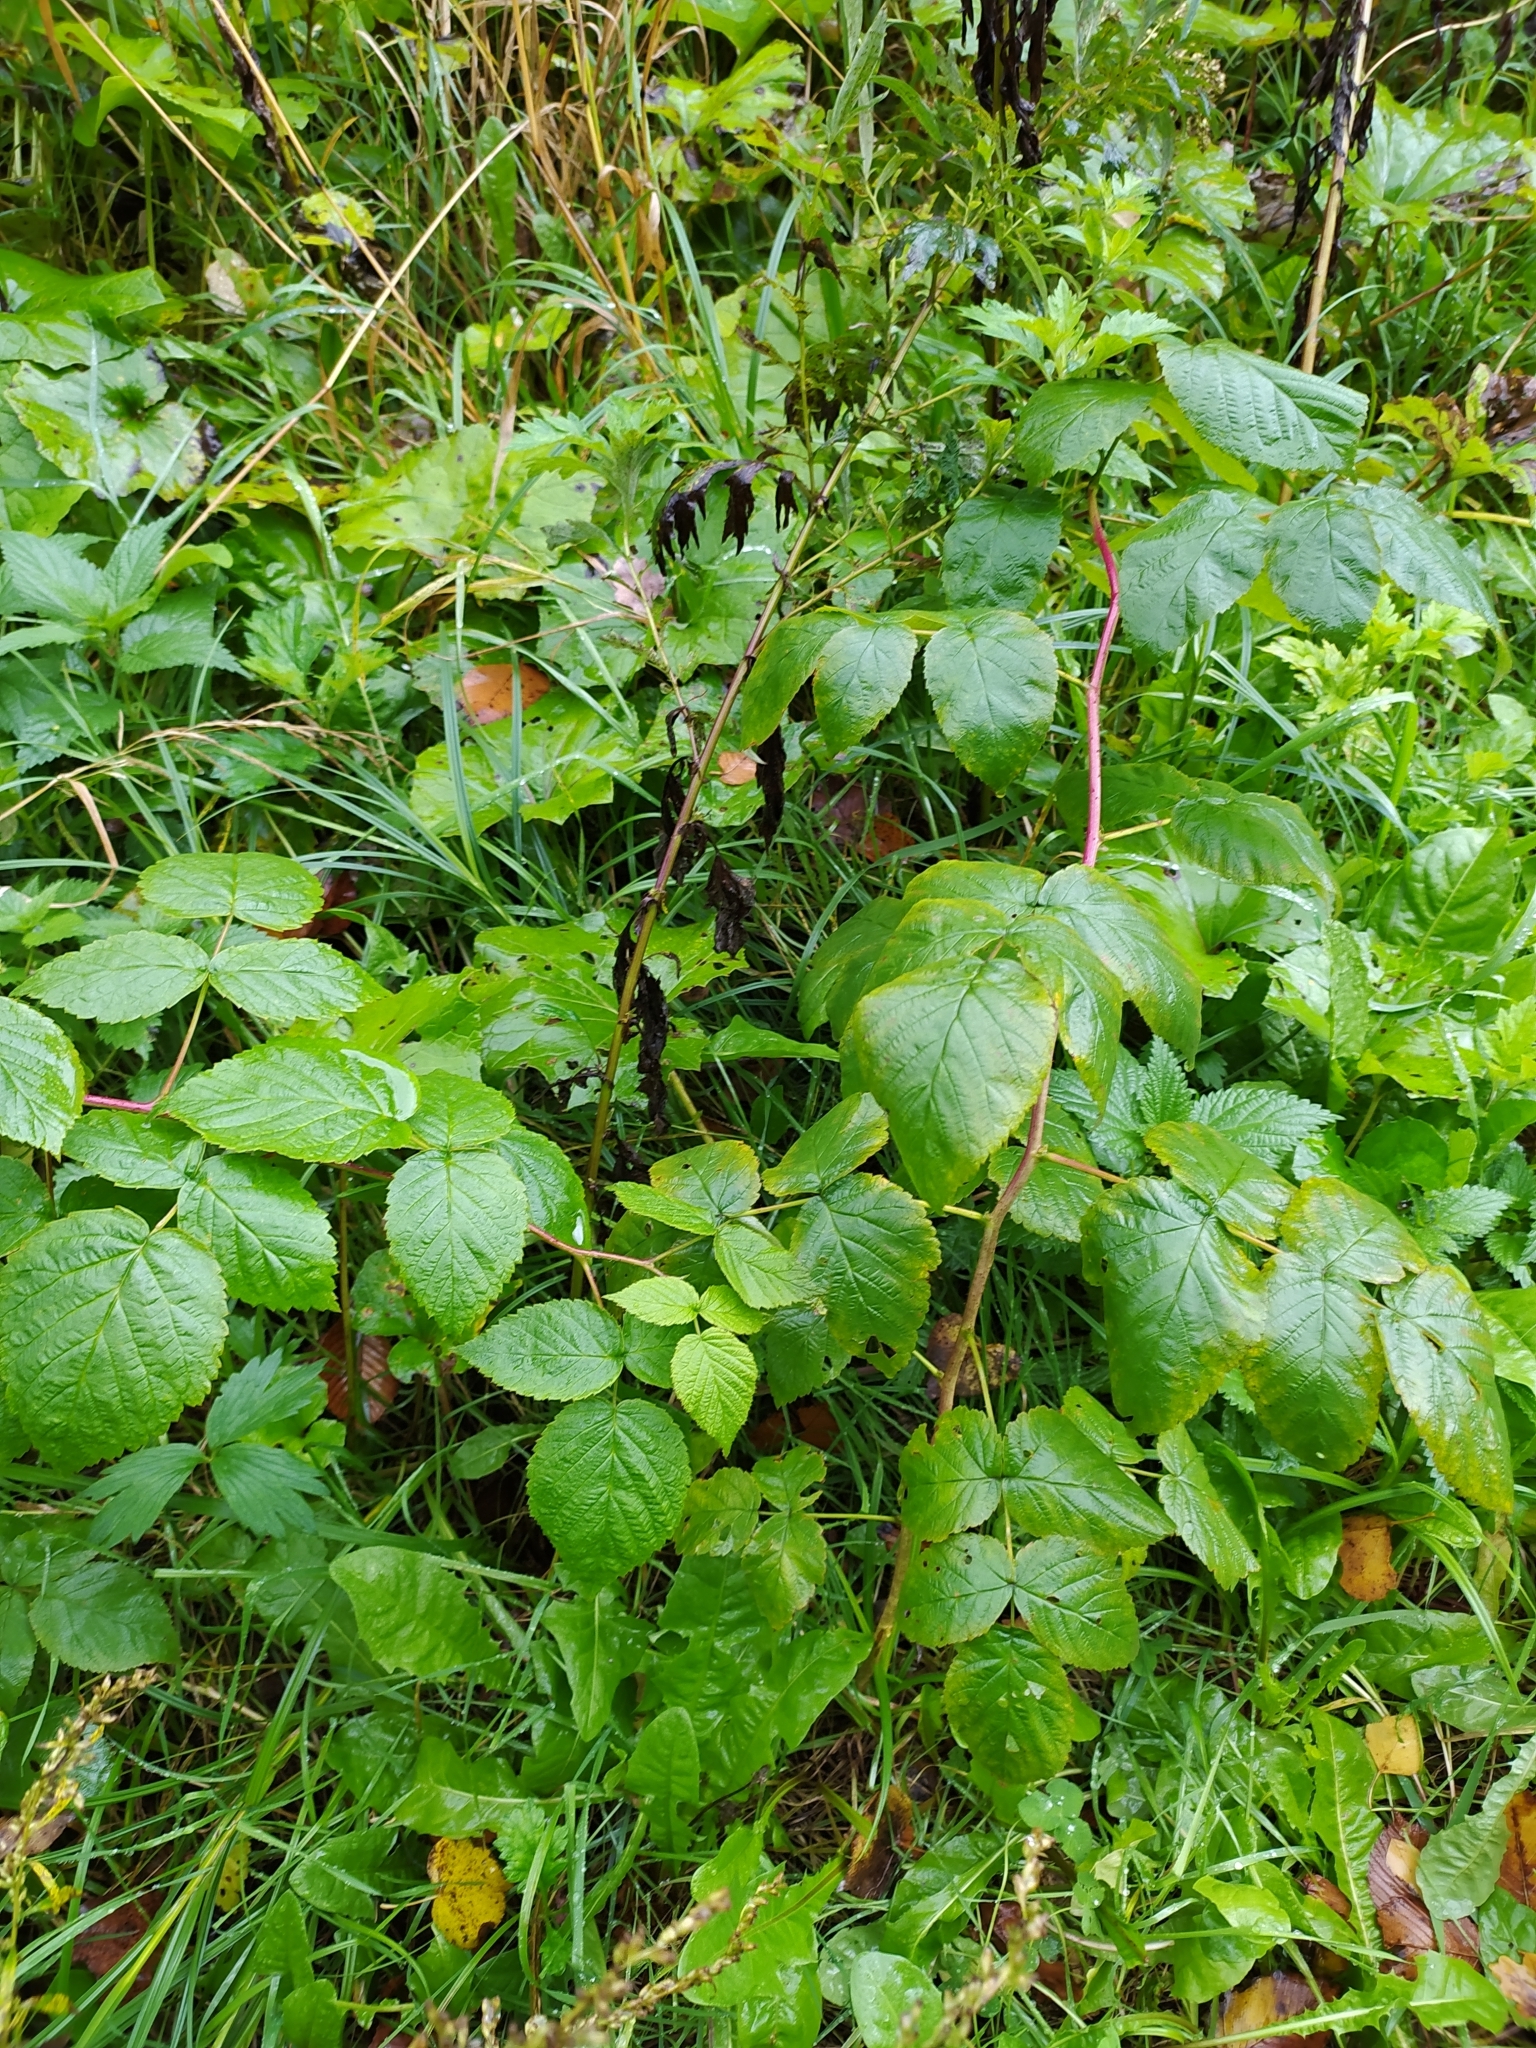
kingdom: Plantae
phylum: Tracheophyta
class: Magnoliopsida
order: Rosales
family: Rosaceae
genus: Rubus
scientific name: Rubus idaeus
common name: Raspberry
